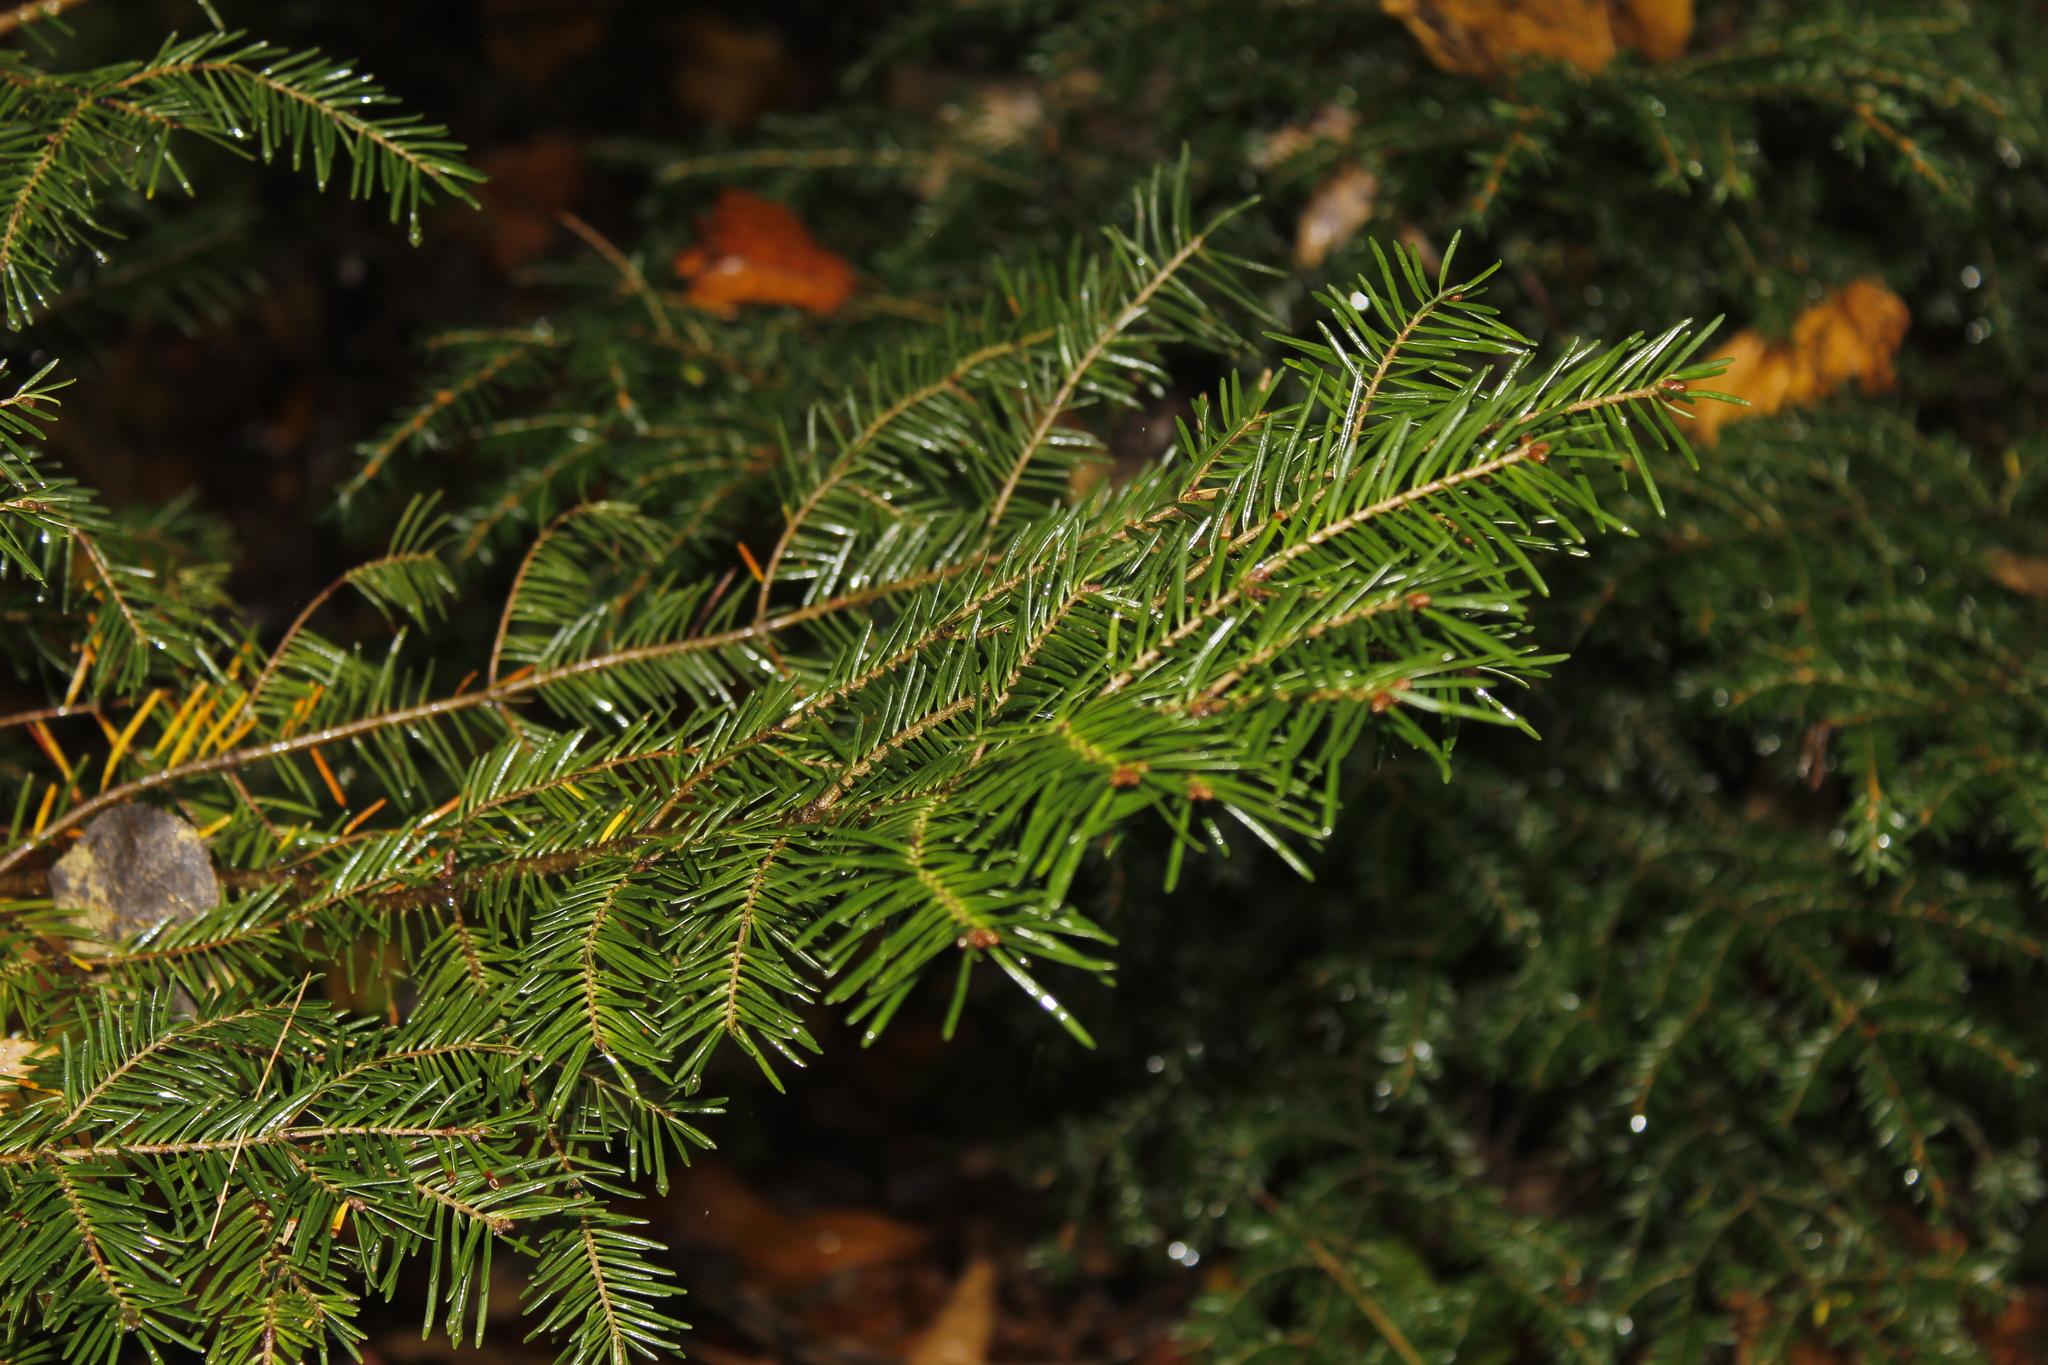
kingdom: Plantae
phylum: Tracheophyta
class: Pinopsida
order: Pinales
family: Pinaceae
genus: Abies
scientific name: Abies balsamea
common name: Balsam fir
